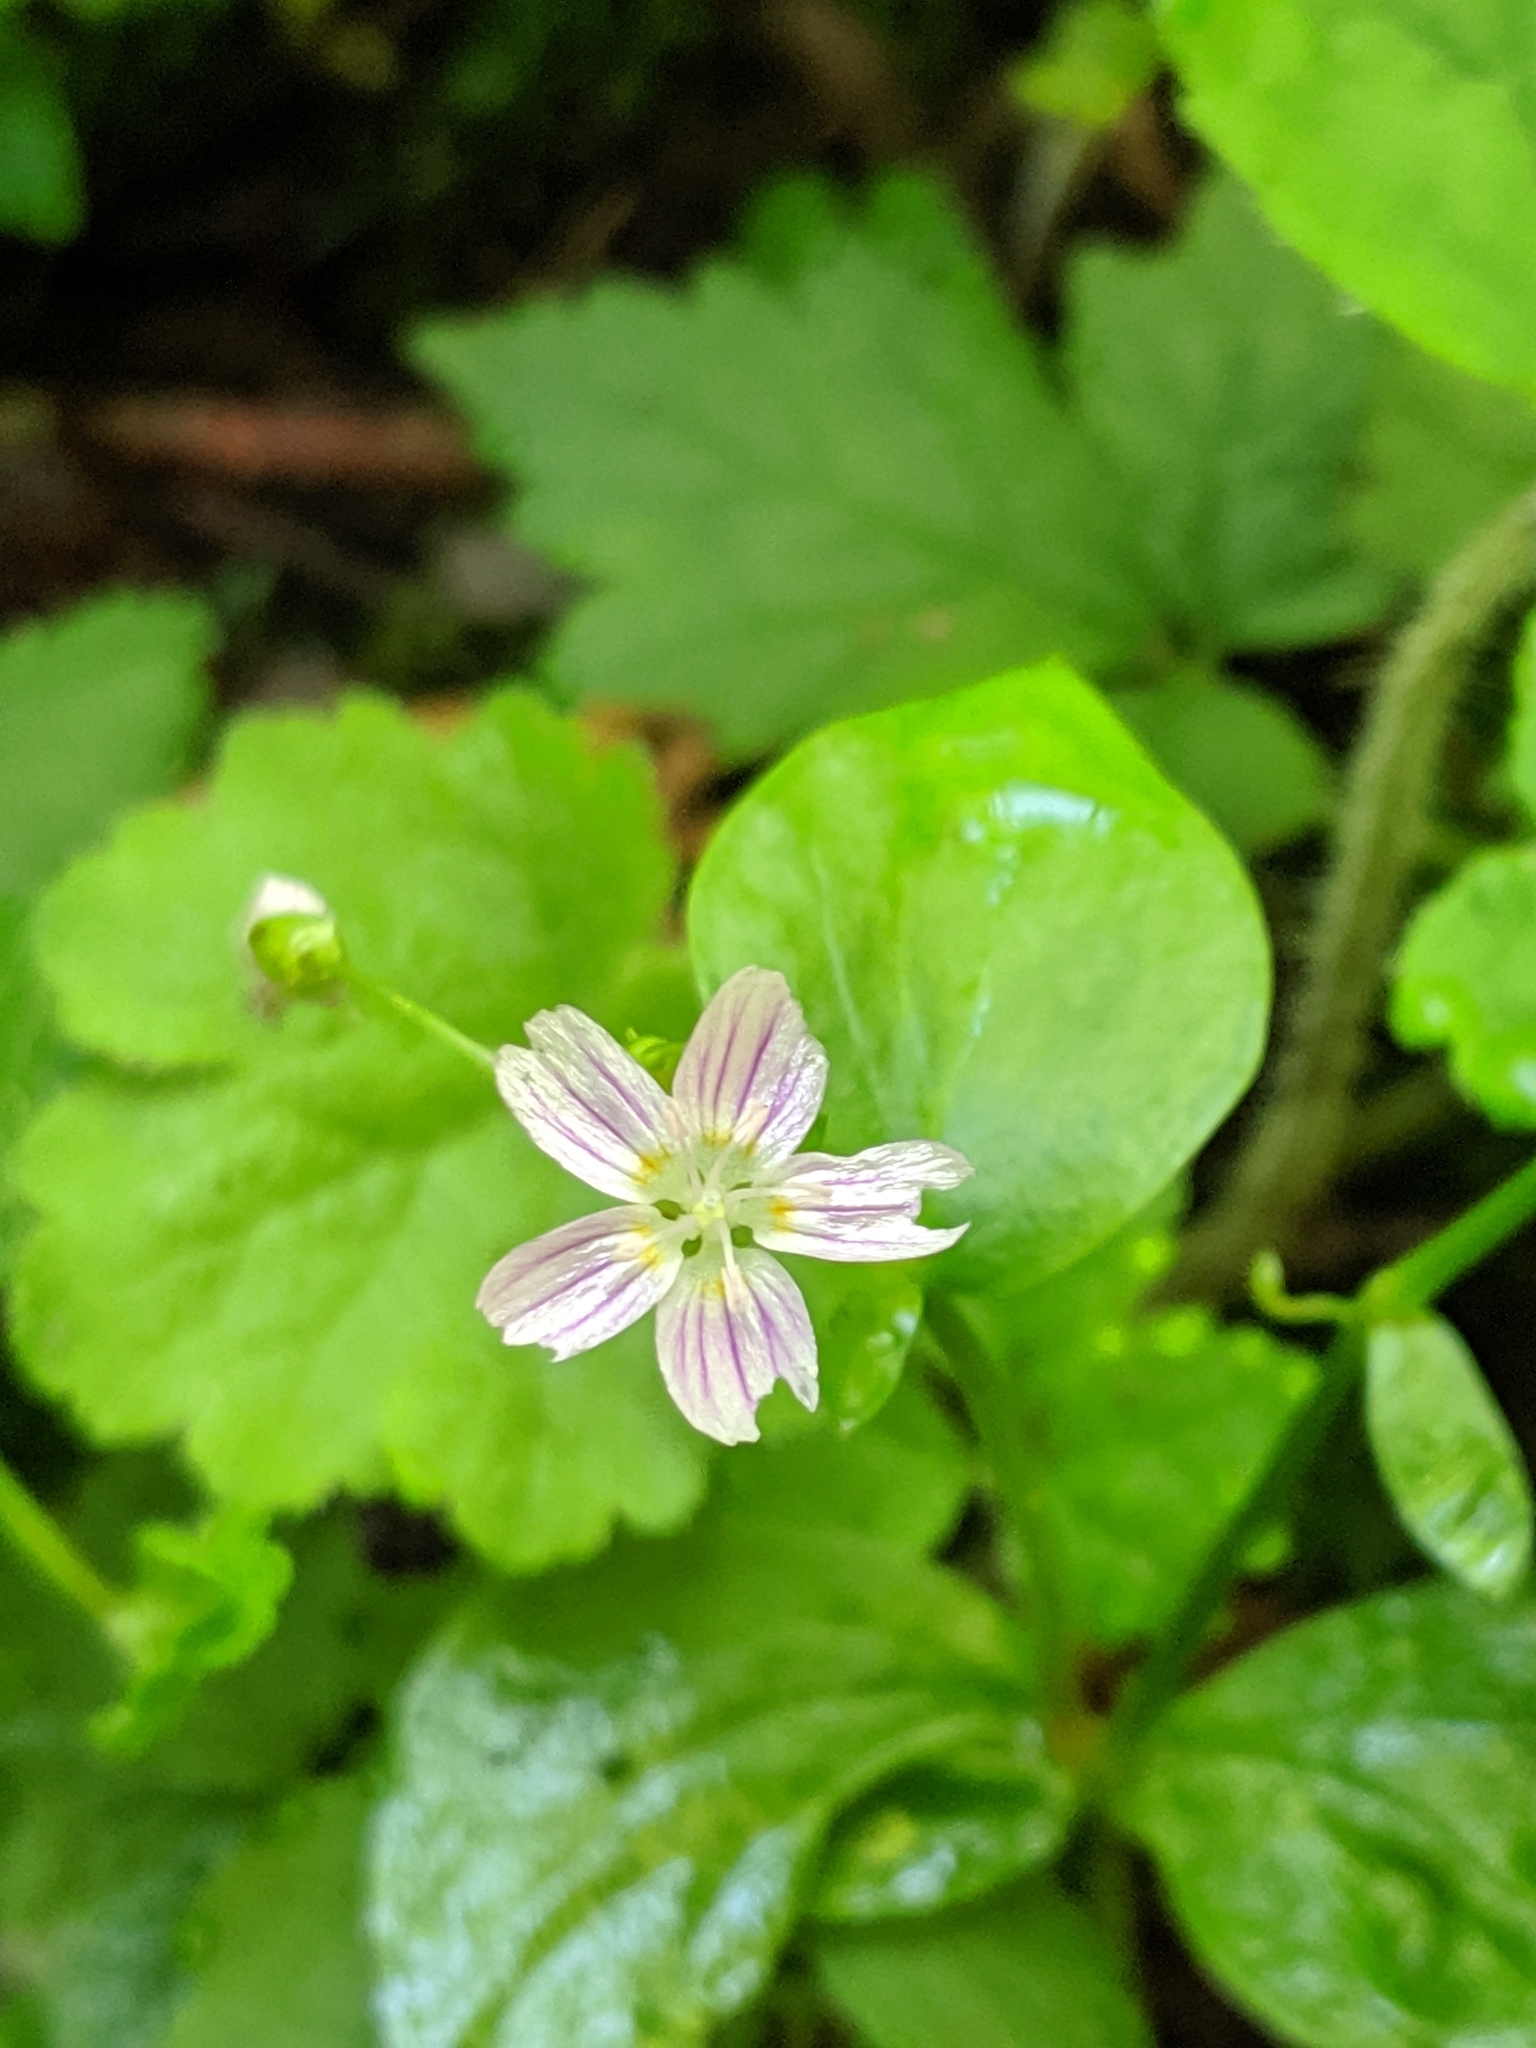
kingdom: Plantae
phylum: Tracheophyta
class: Magnoliopsida
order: Caryophyllales
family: Montiaceae
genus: Claytonia
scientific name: Claytonia sibirica
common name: Pink purslane
